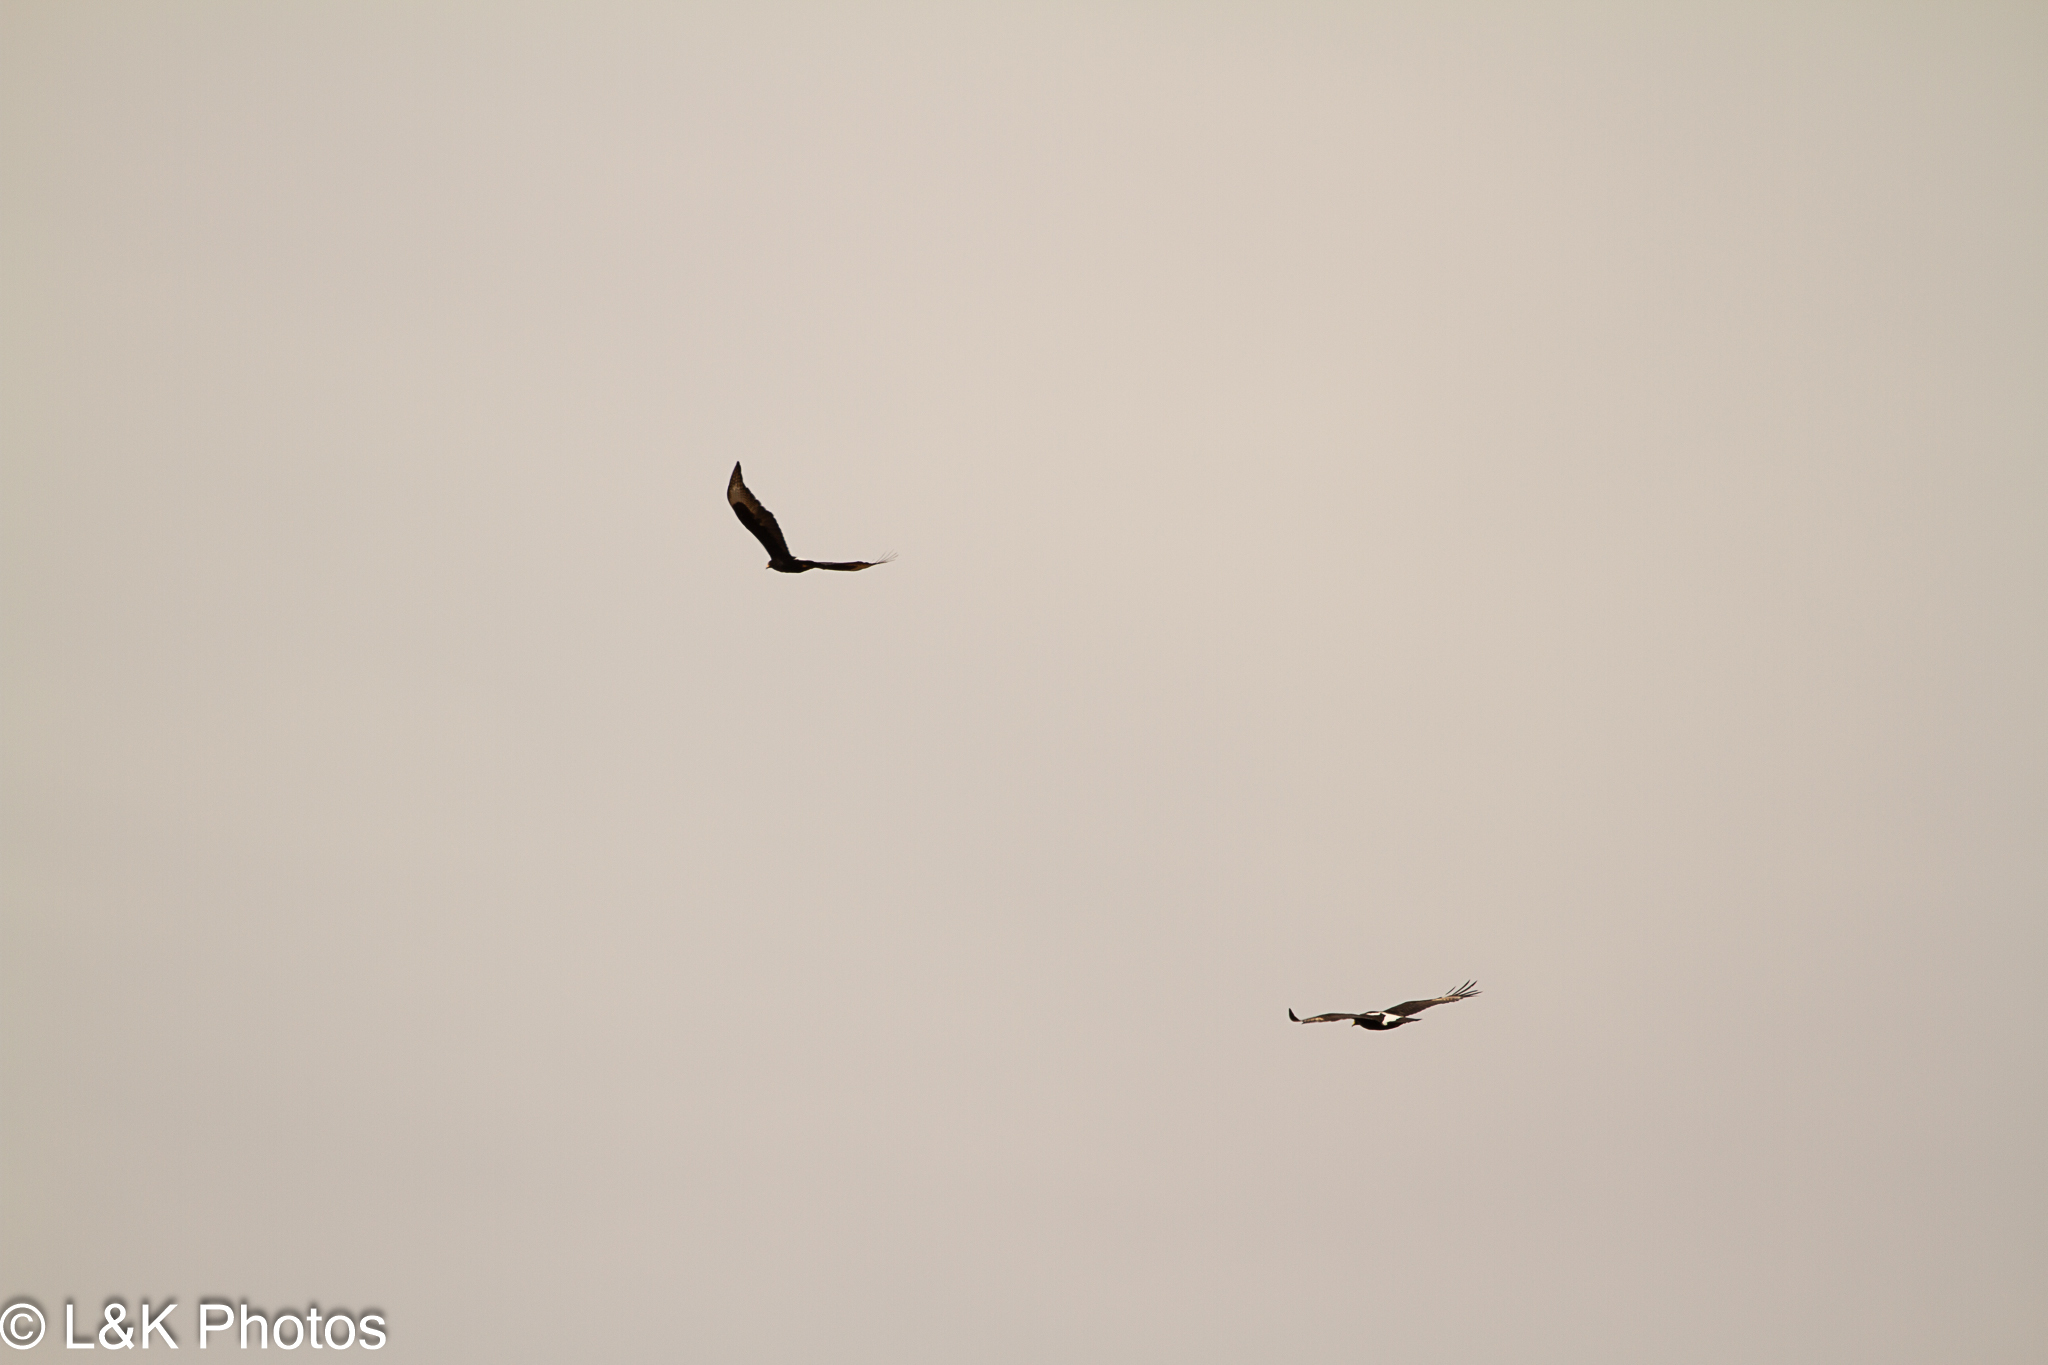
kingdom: Animalia
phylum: Chordata
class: Aves
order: Accipitriformes
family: Accipitridae
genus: Aquila
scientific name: Aquila verreauxii
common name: Verreaux's eagle
